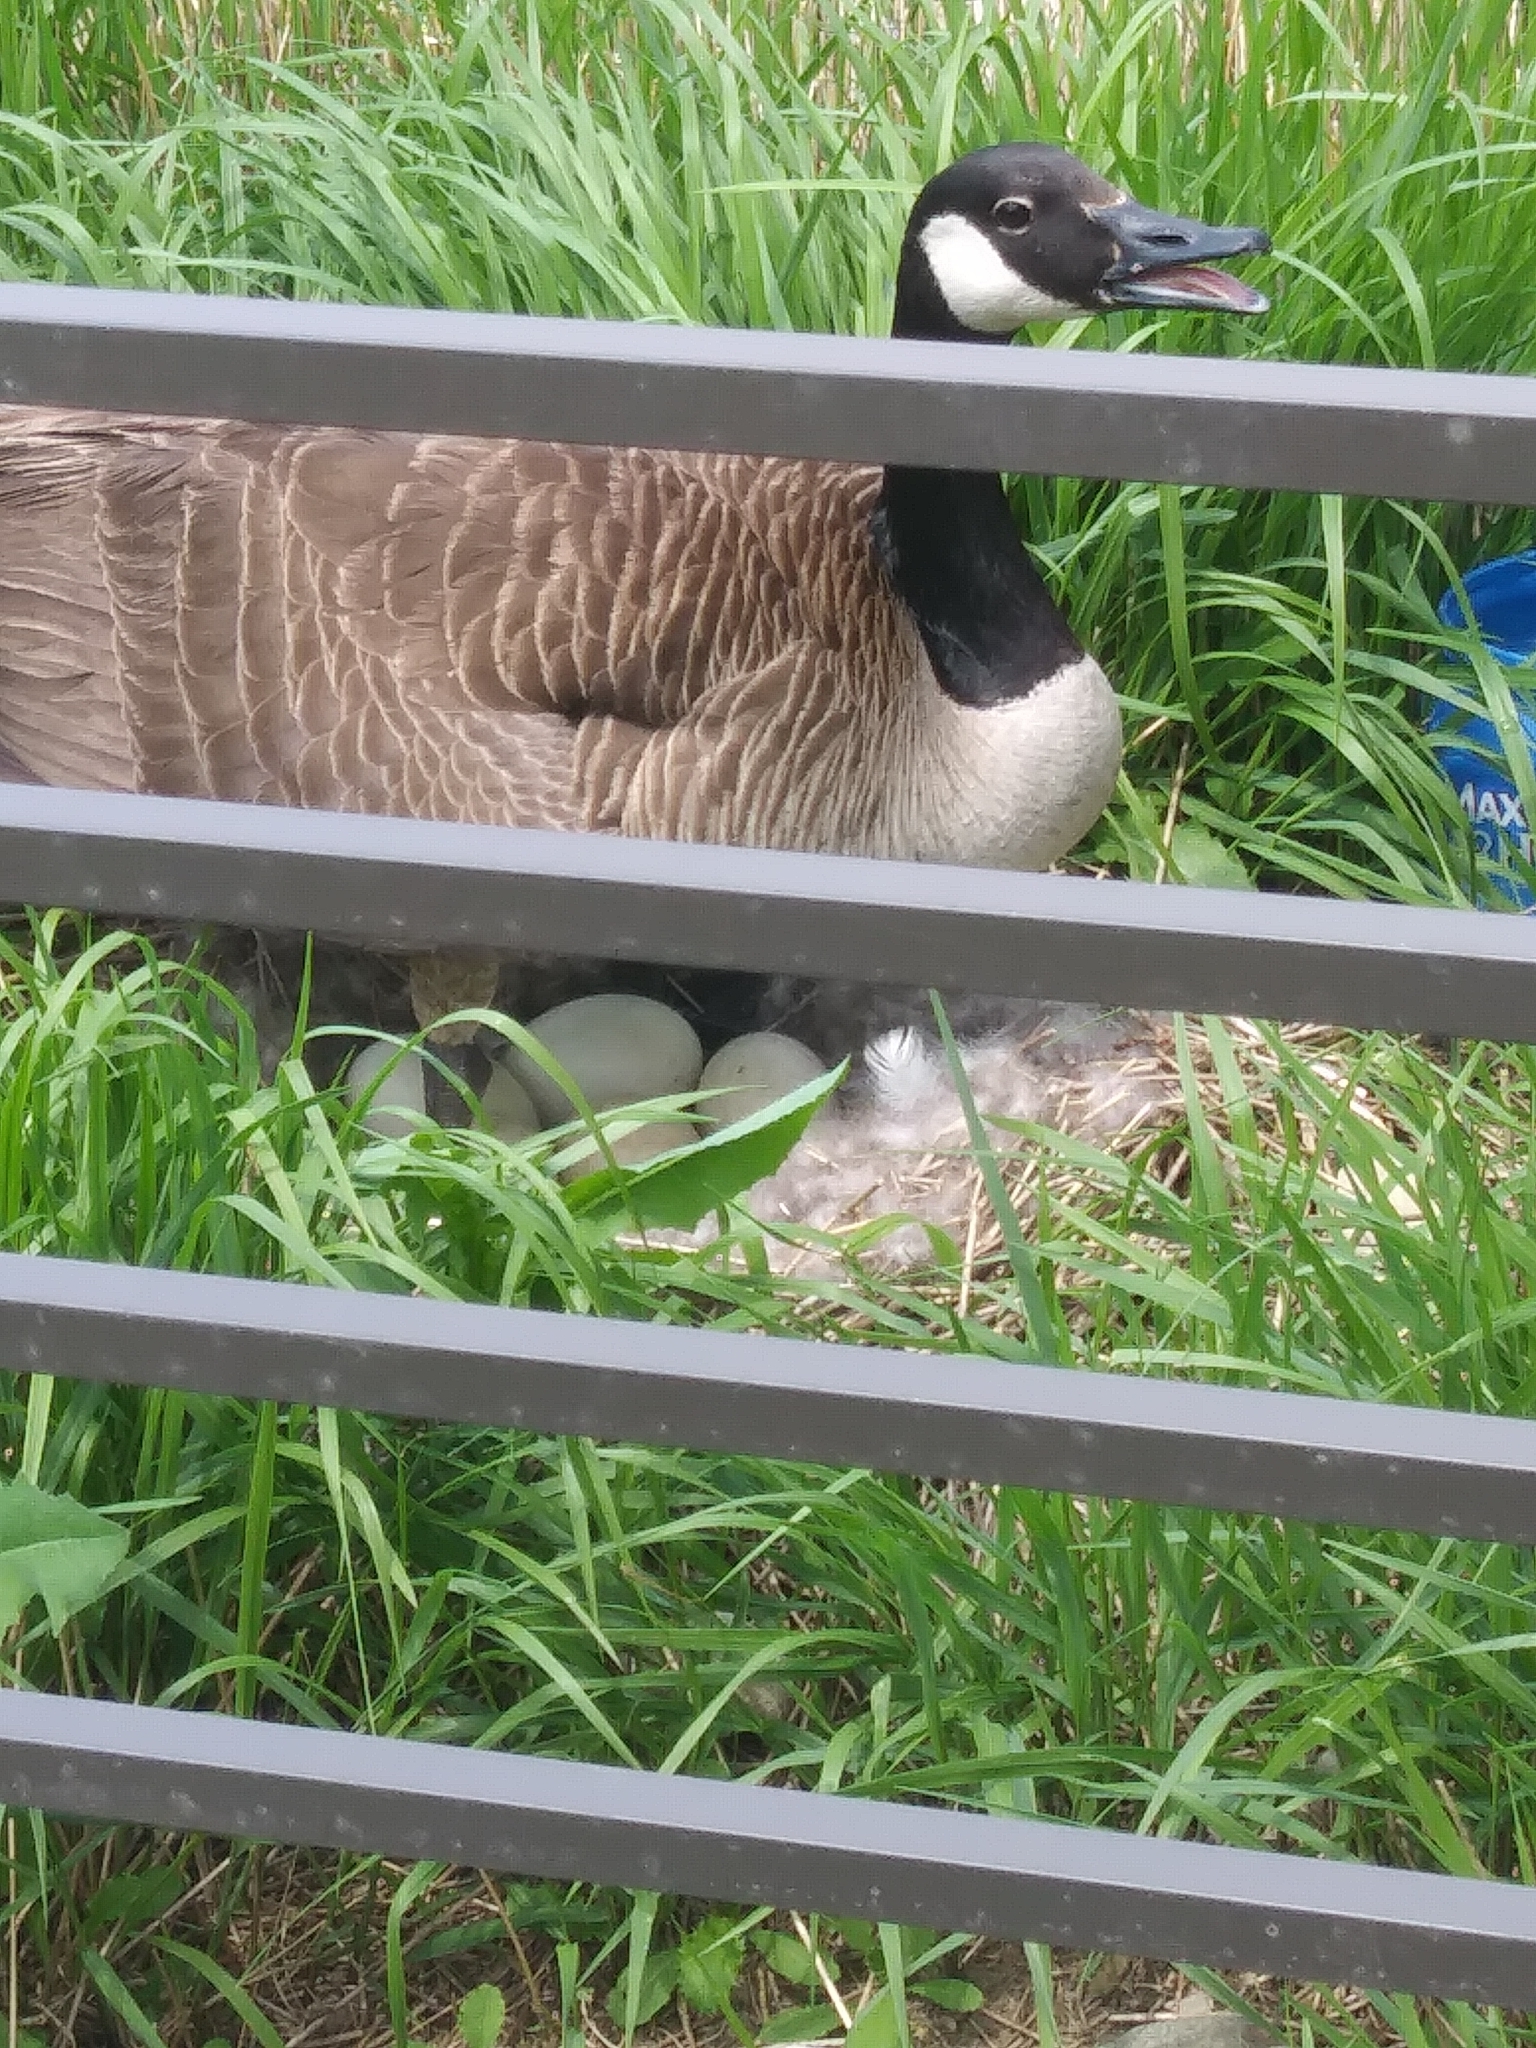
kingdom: Animalia
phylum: Chordata
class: Aves
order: Anseriformes
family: Anatidae
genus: Branta
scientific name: Branta canadensis
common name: Canada goose
